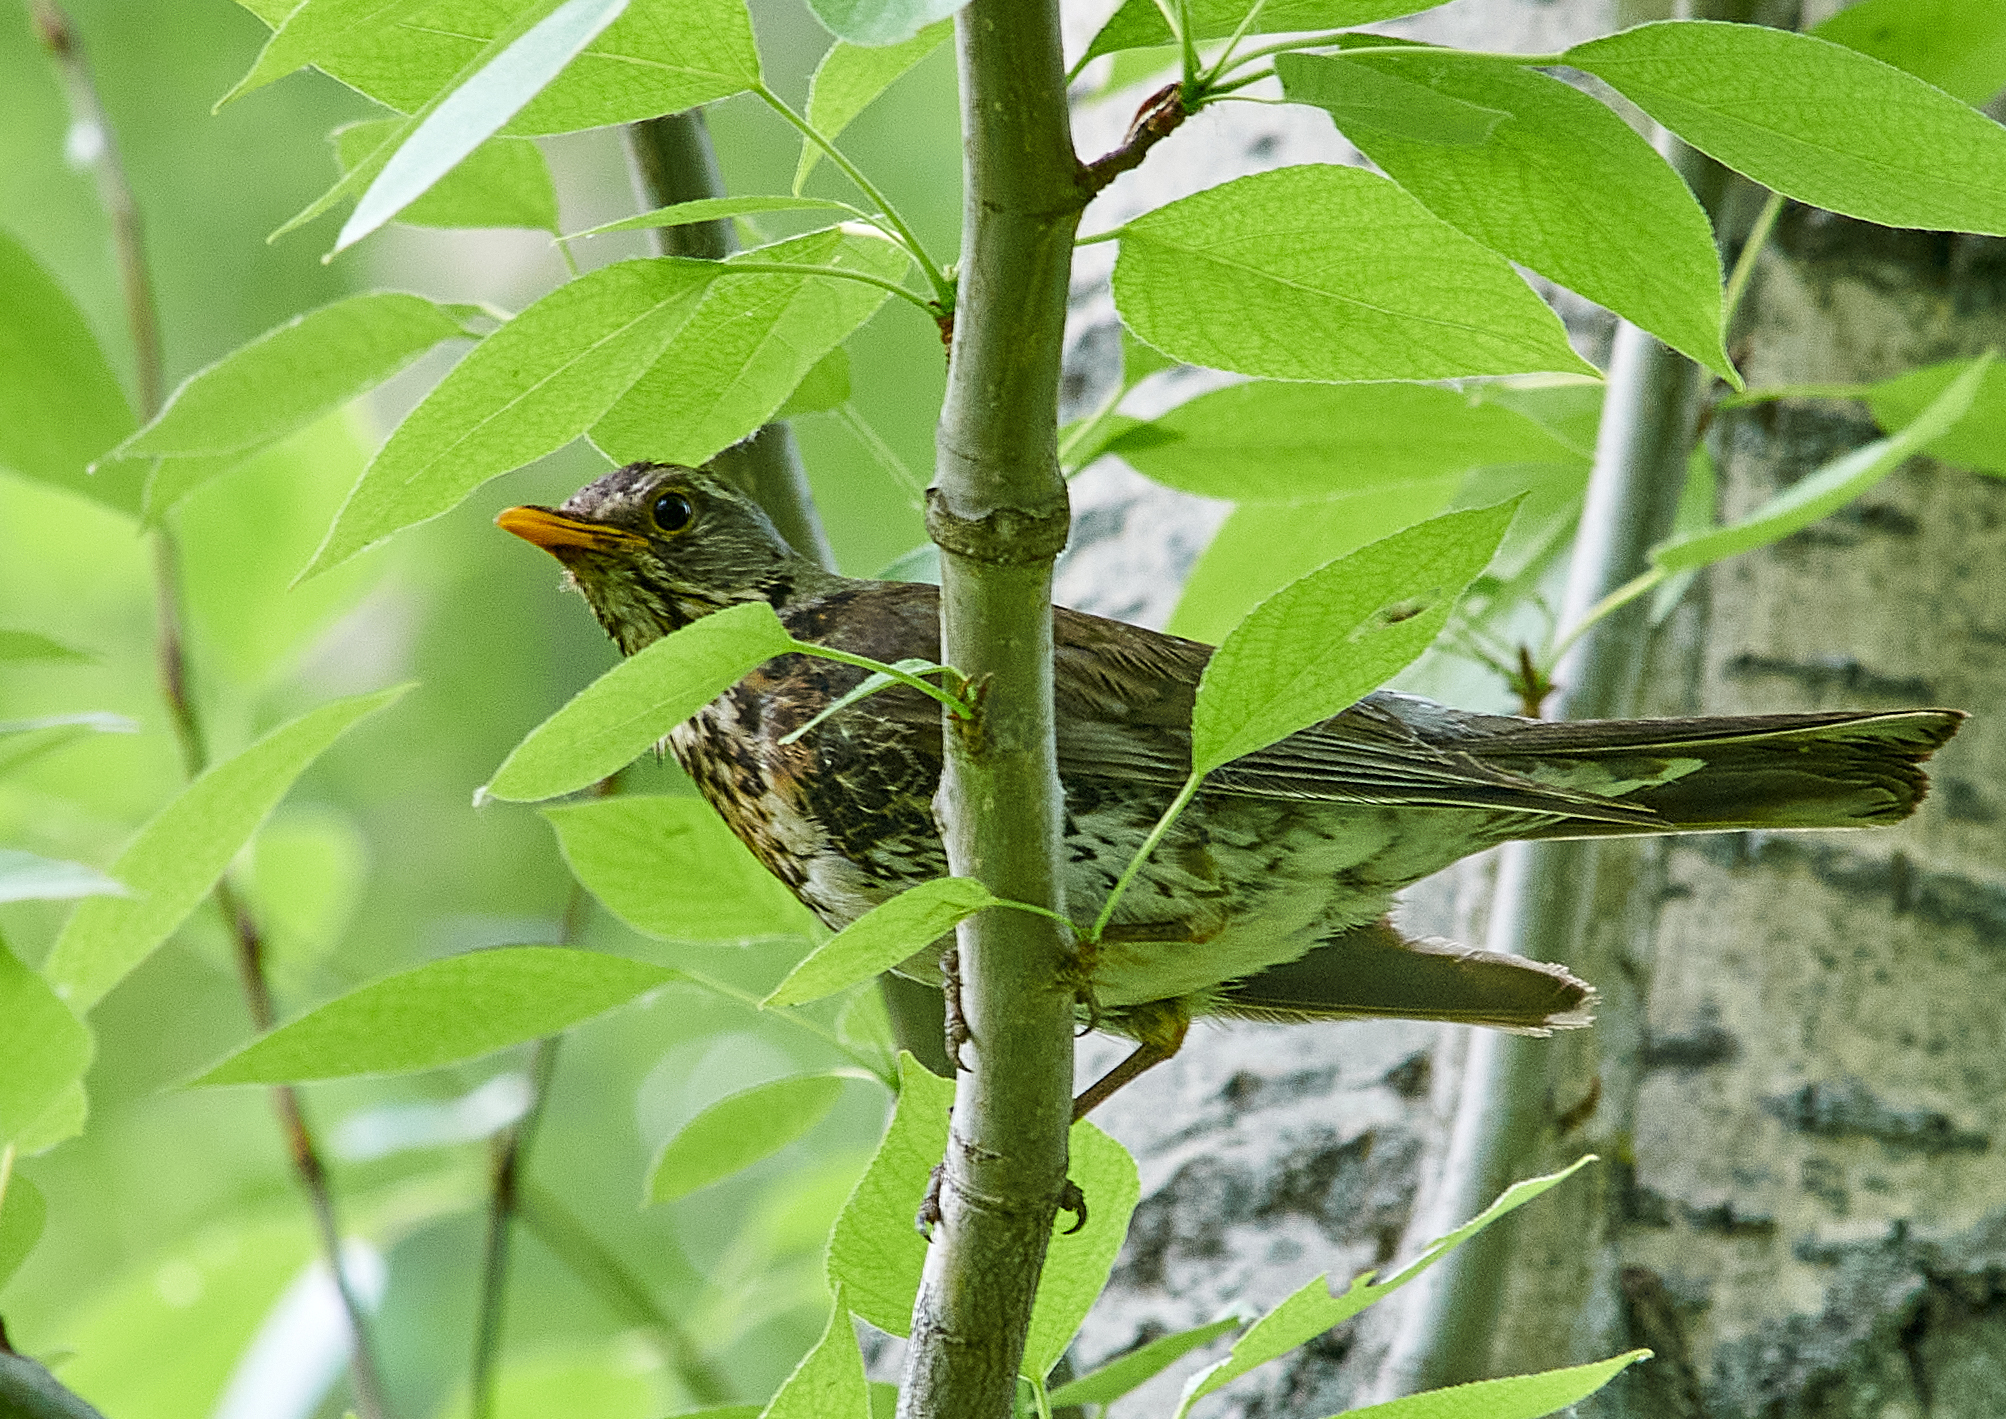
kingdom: Animalia
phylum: Chordata
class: Aves
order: Passeriformes
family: Turdidae
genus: Turdus
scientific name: Turdus pilaris
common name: Fieldfare
